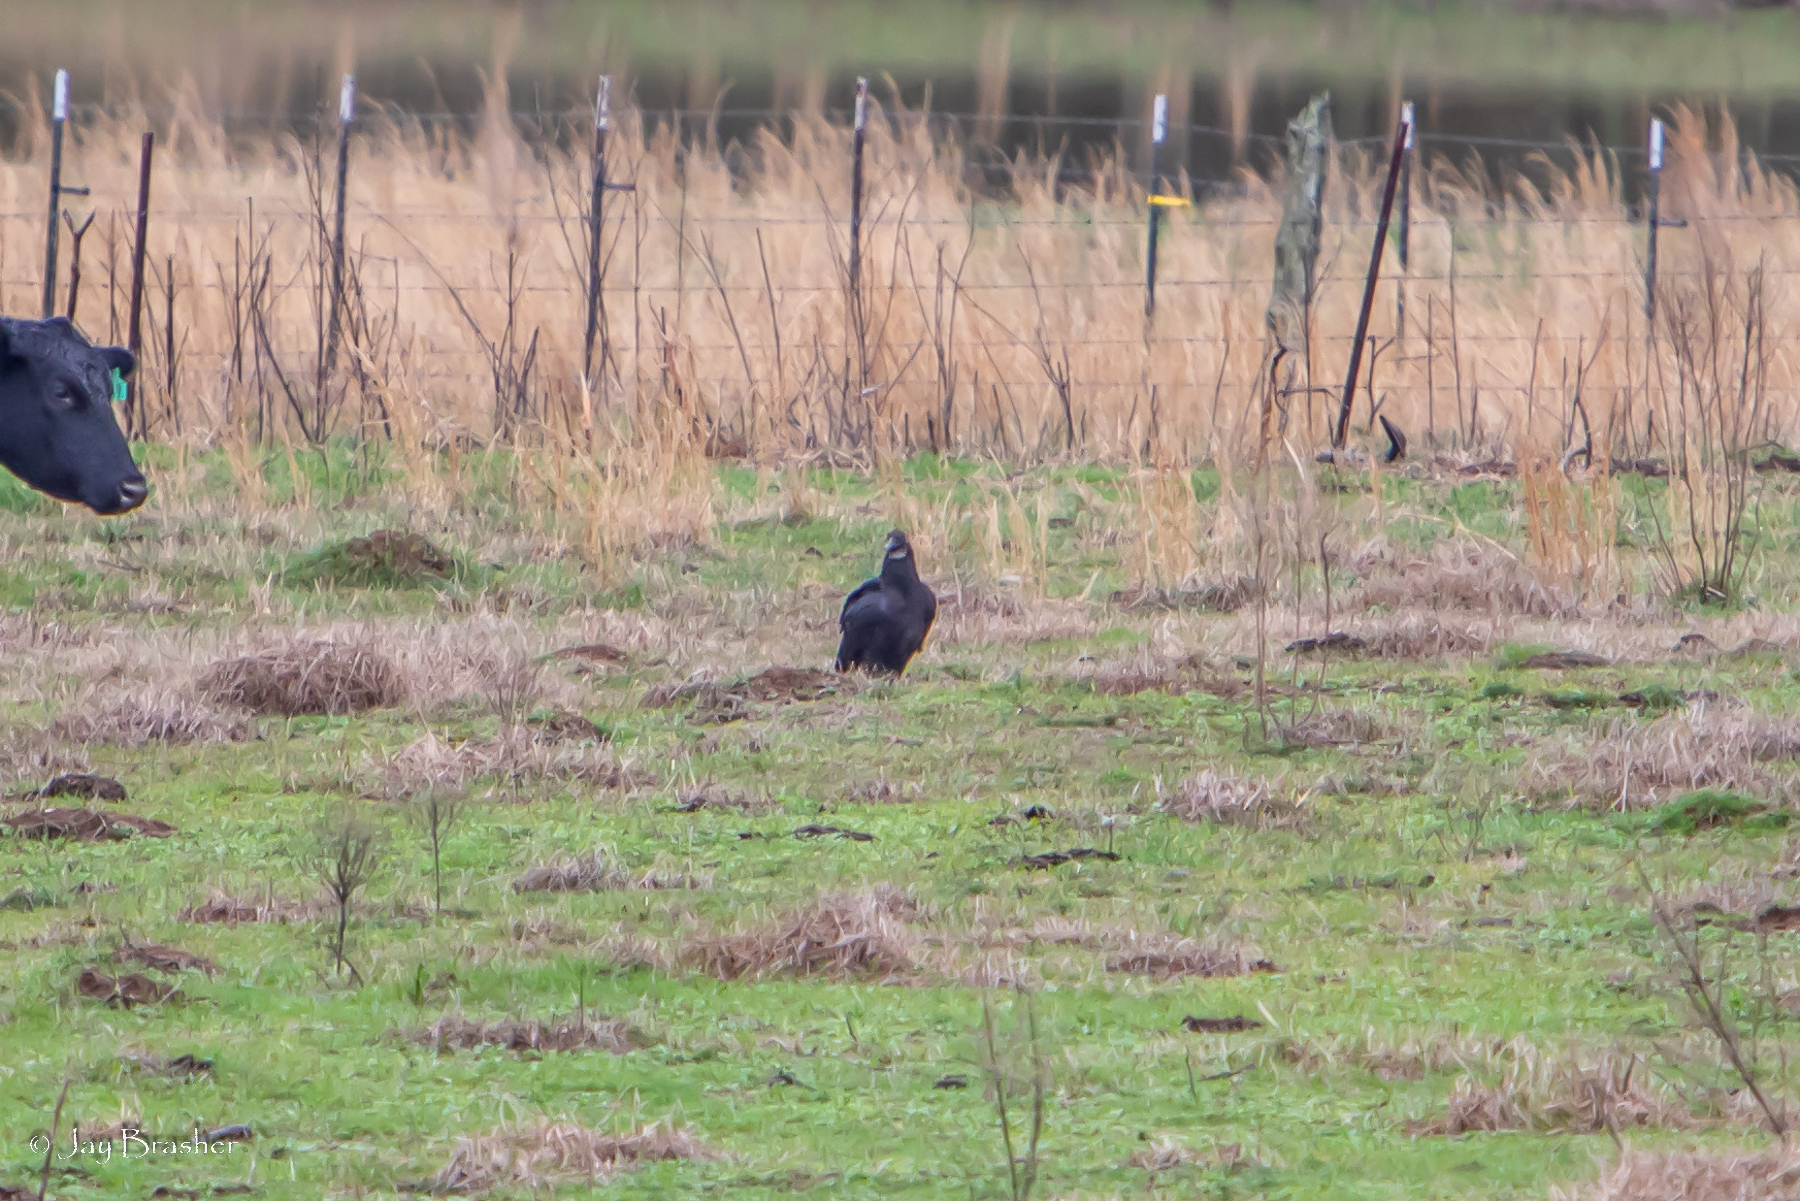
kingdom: Animalia
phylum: Chordata
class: Aves
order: Accipitriformes
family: Cathartidae
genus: Coragyps
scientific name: Coragyps atratus
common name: Black vulture
